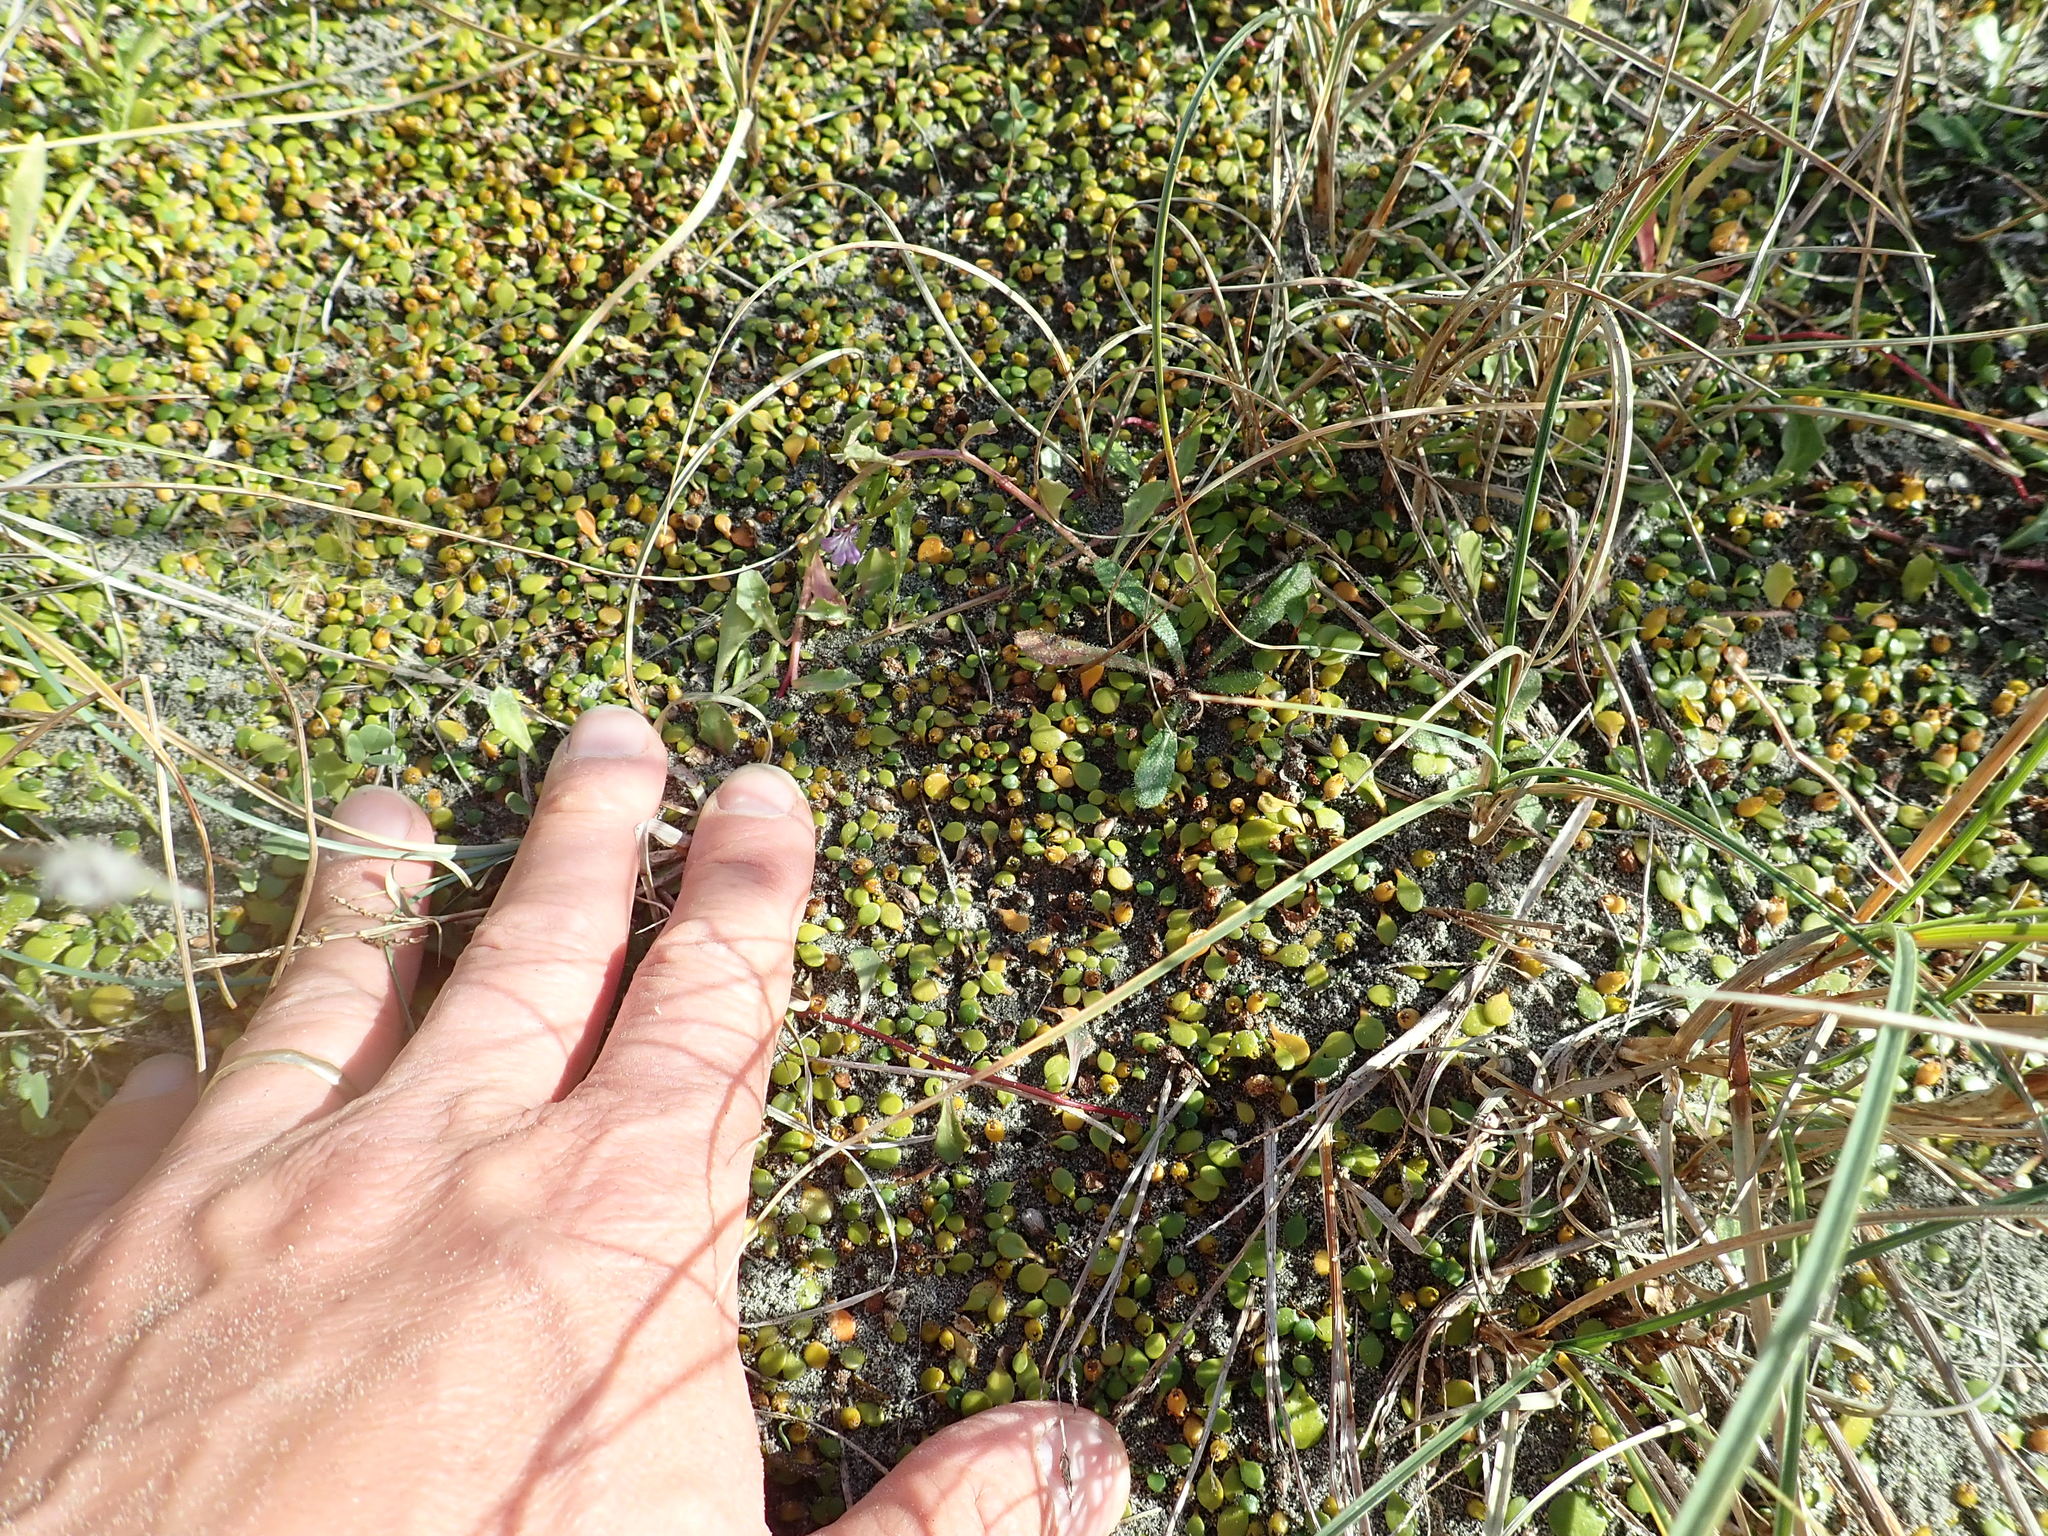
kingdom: Plantae
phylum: Tracheophyta
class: Magnoliopsida
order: Asterales
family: Campanulaceae
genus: Lobelia
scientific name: Lobelia anceps
